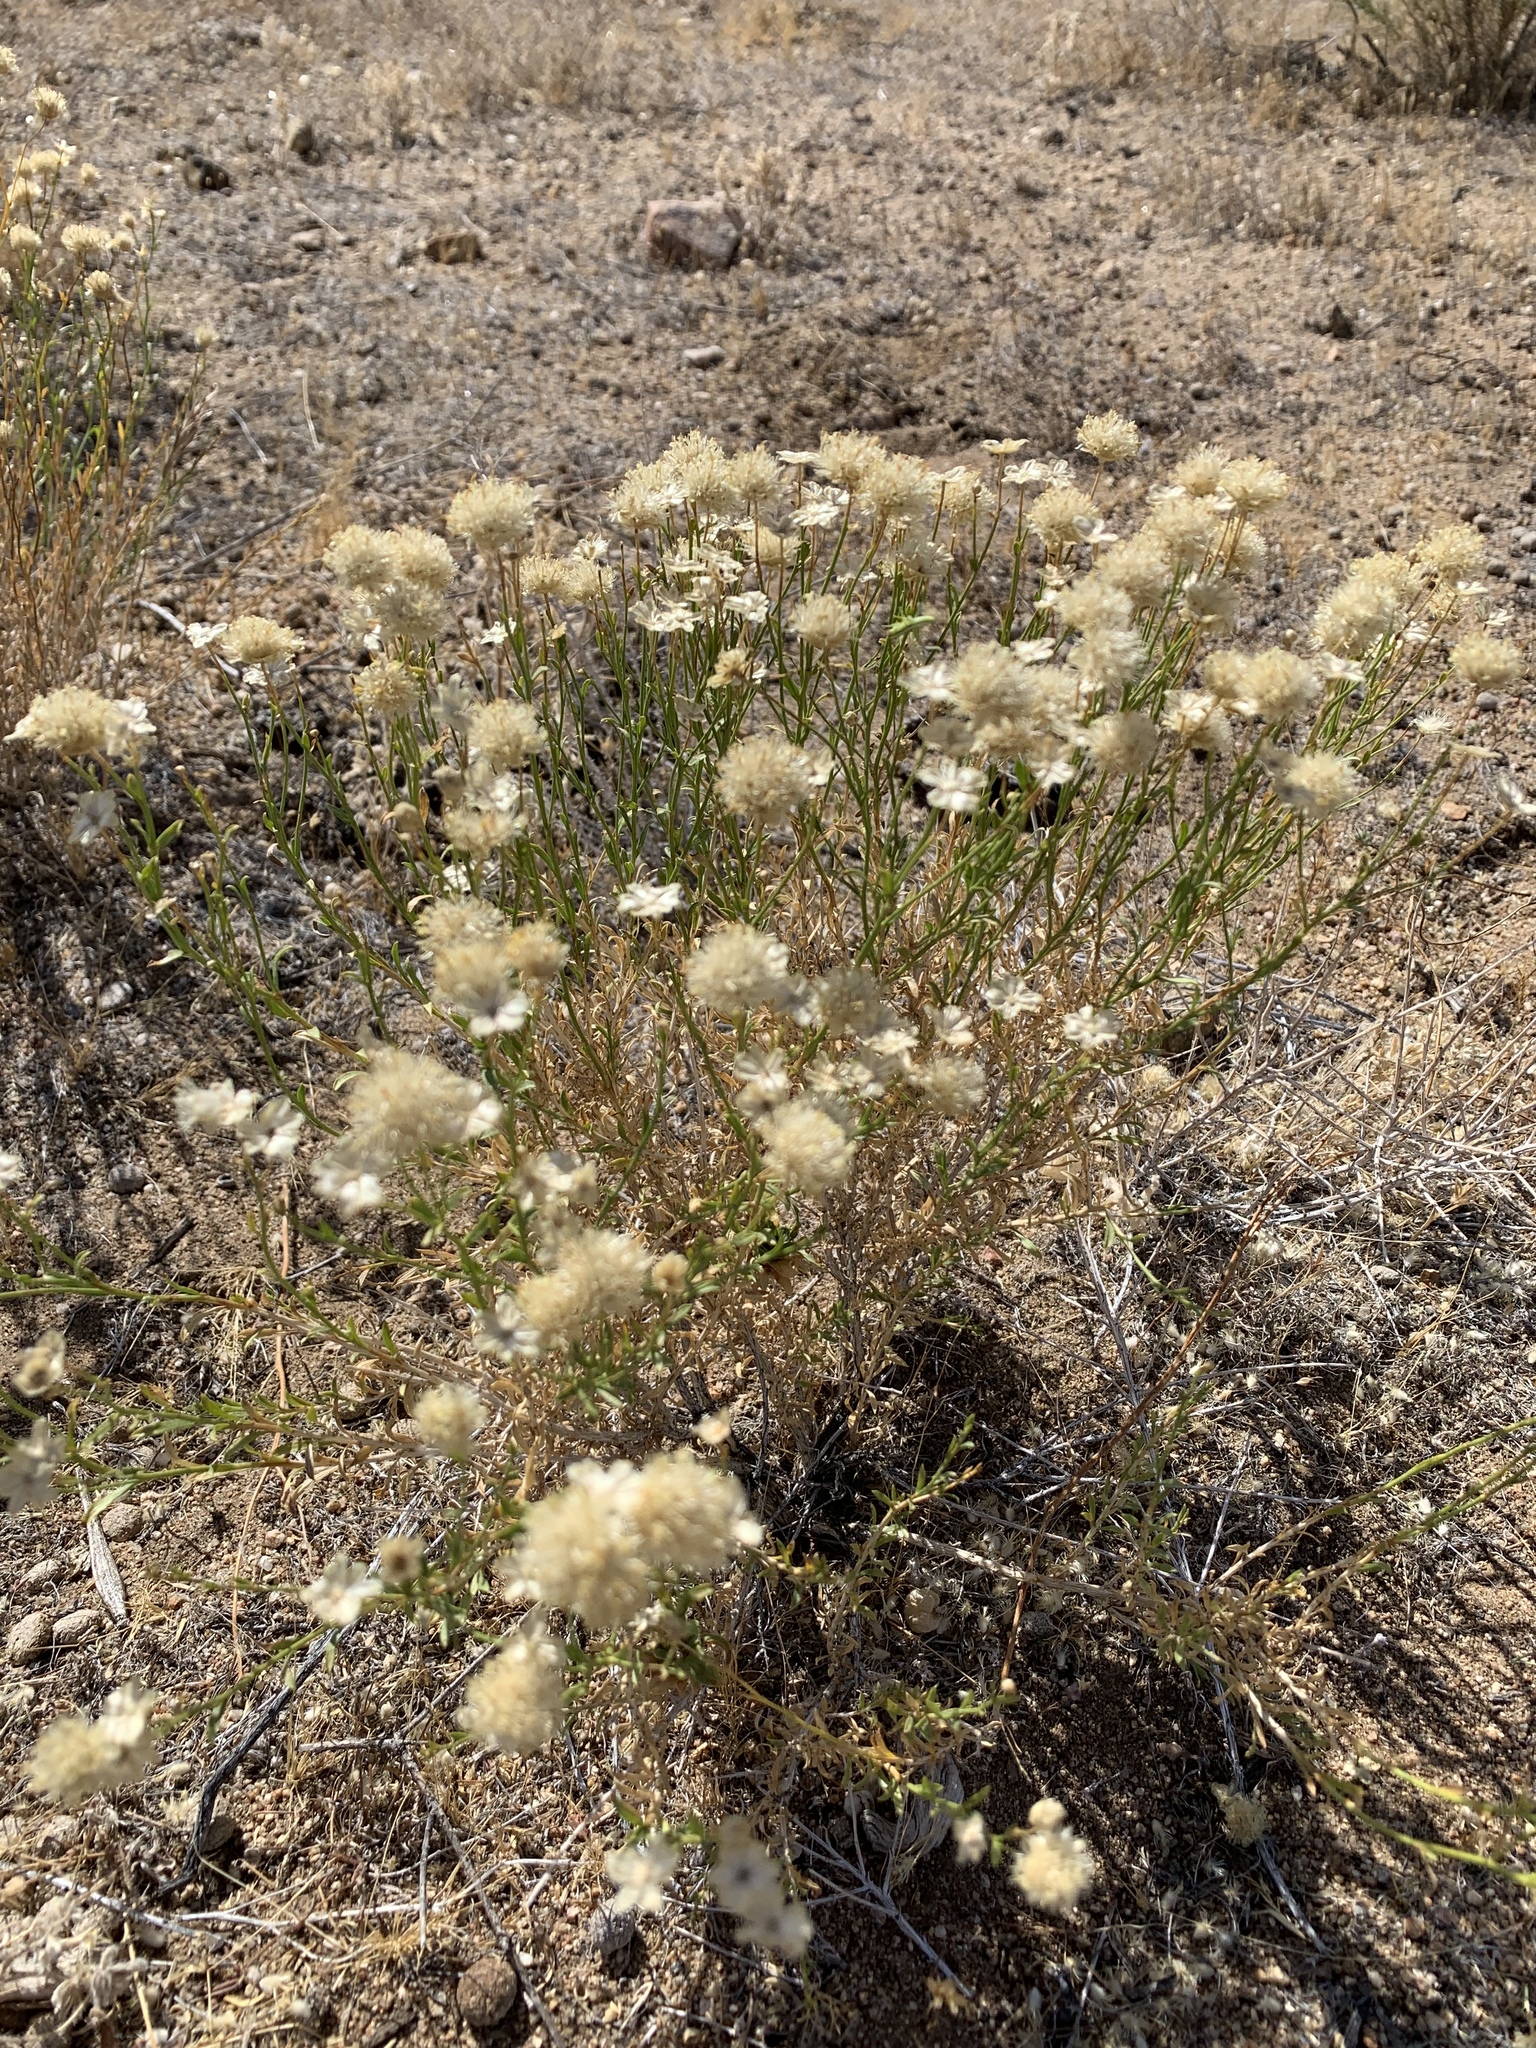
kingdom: Plantae
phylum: Tracheophyta
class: Magnoliopsida
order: Asterales
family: Asteraceae
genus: Ericameria
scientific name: Ericameria nauseosa
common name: Rubber rabbitbrush
